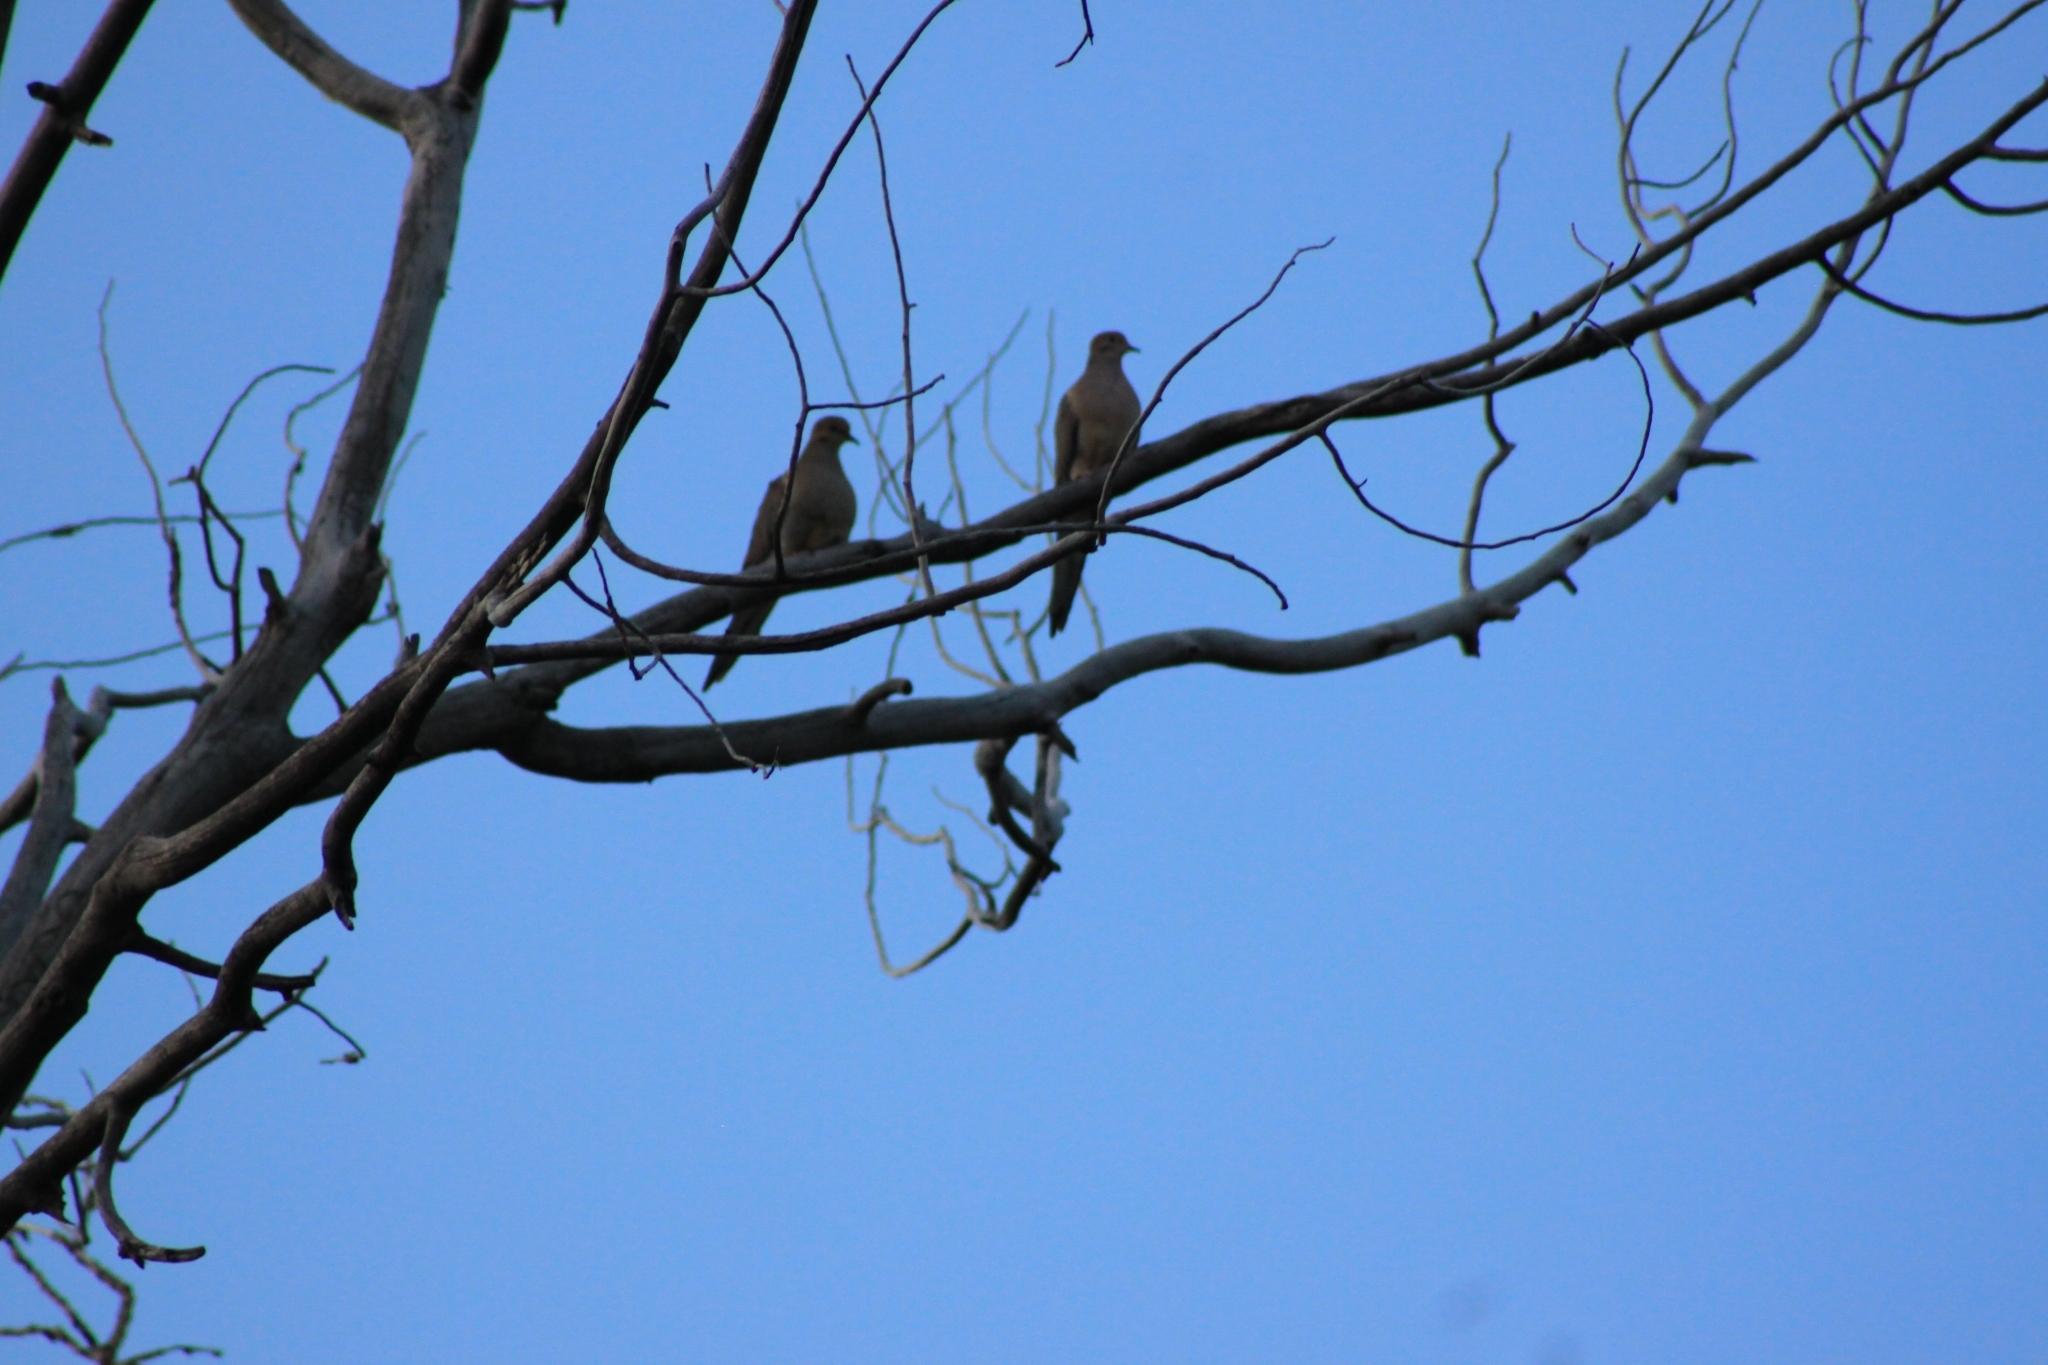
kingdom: Animalia
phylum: Chordata
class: Aves
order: Columbiformes
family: Columbidae
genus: Zenaida
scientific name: Zenaida macroura
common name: Mourning dove
